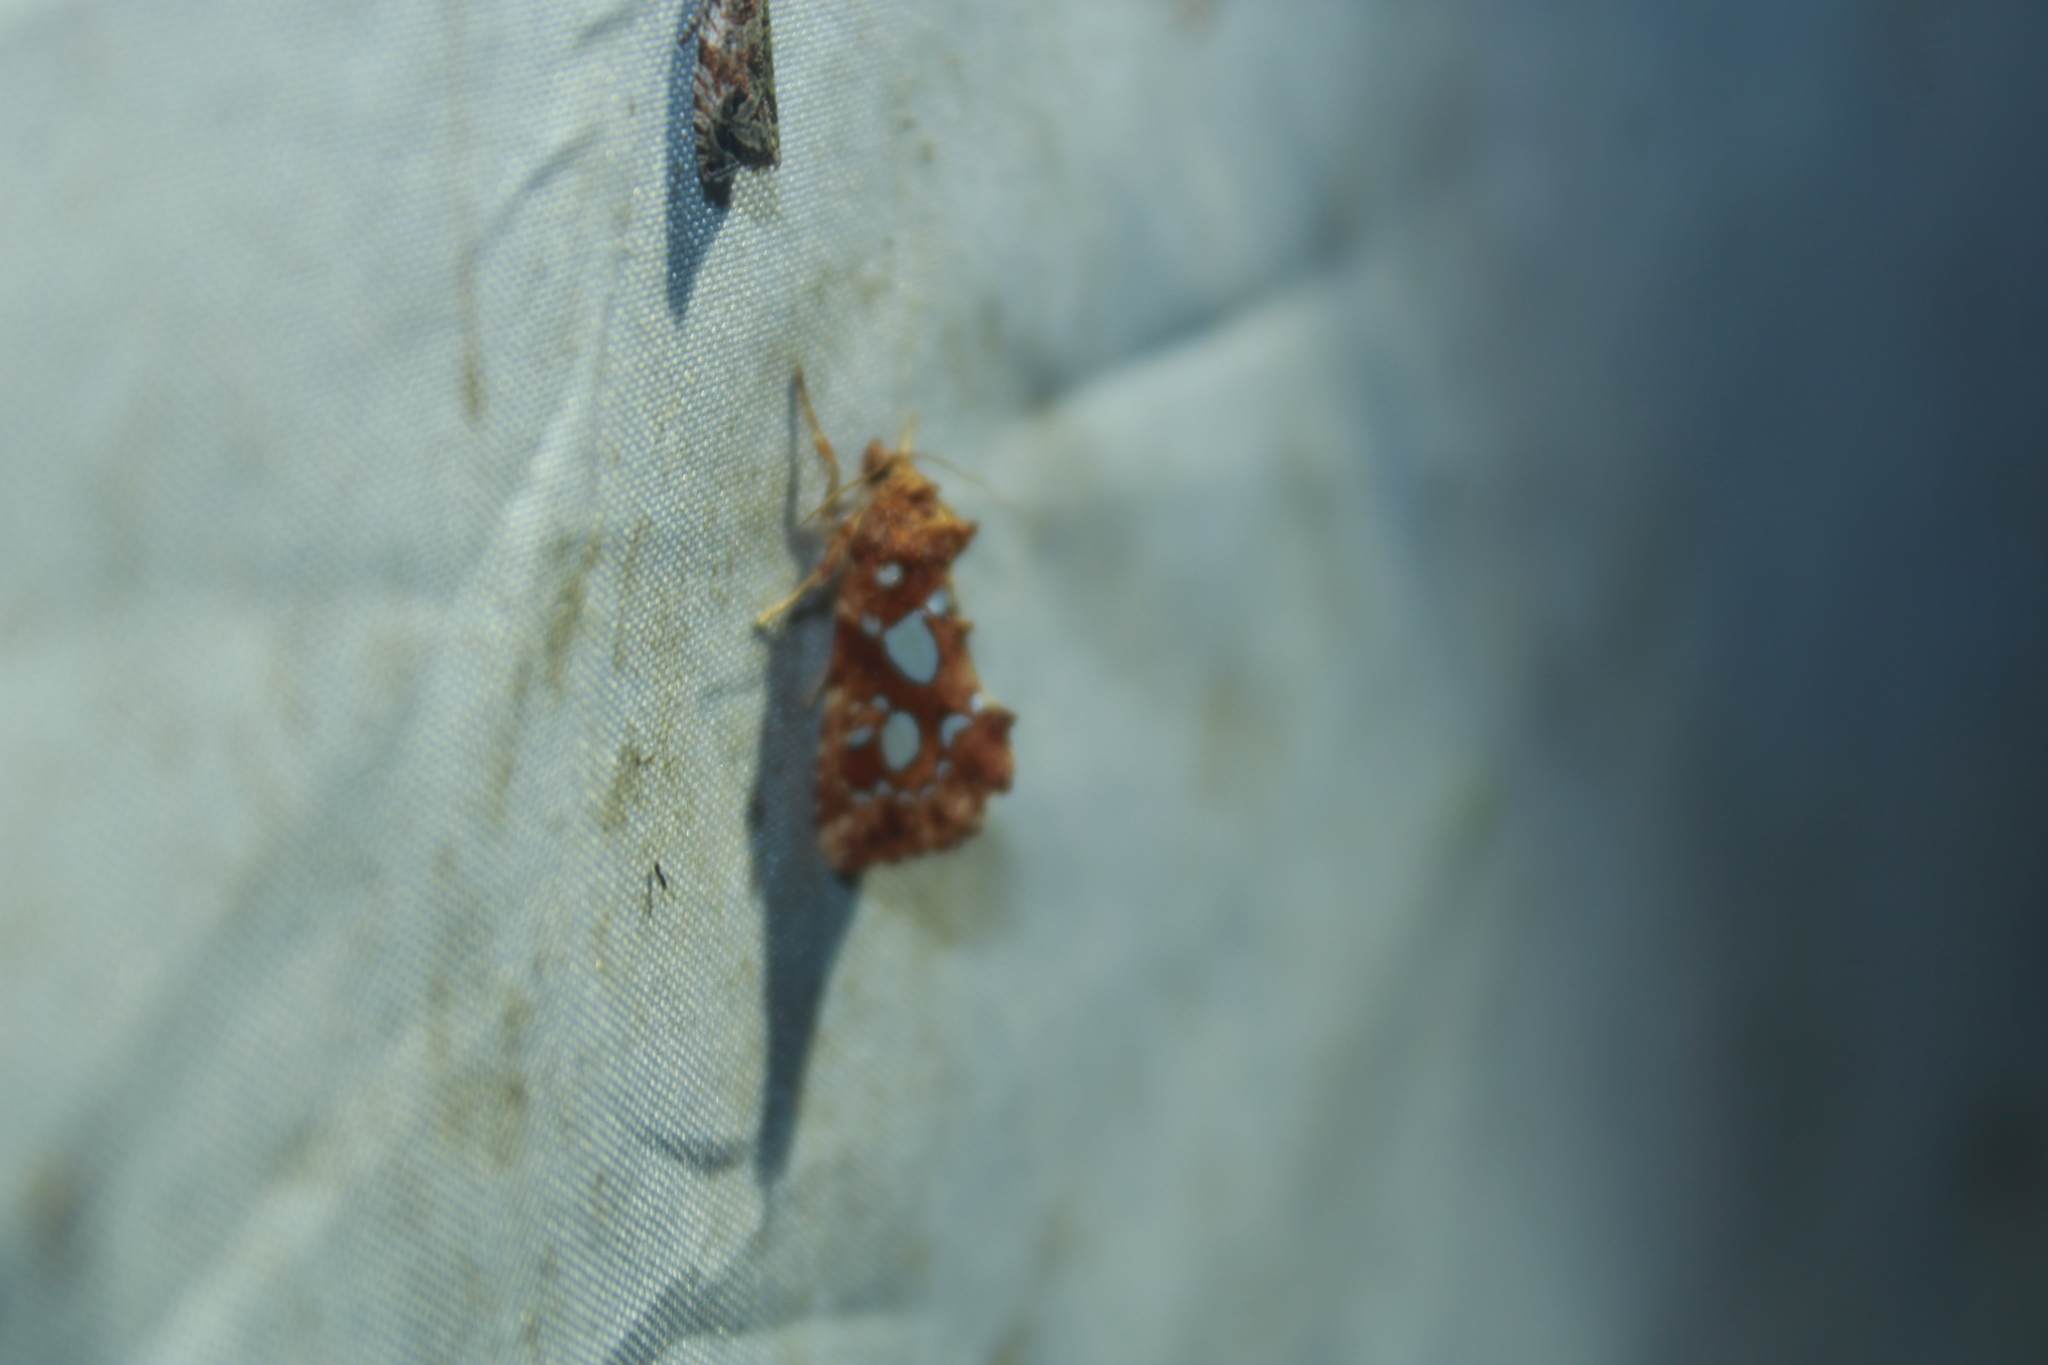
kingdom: Animalia
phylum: Arthropoda
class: Insecta
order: Lepidoptera
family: Noctuidae
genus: Callopistria
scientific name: Callopistria cordata
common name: Silver-spotted fern moth
